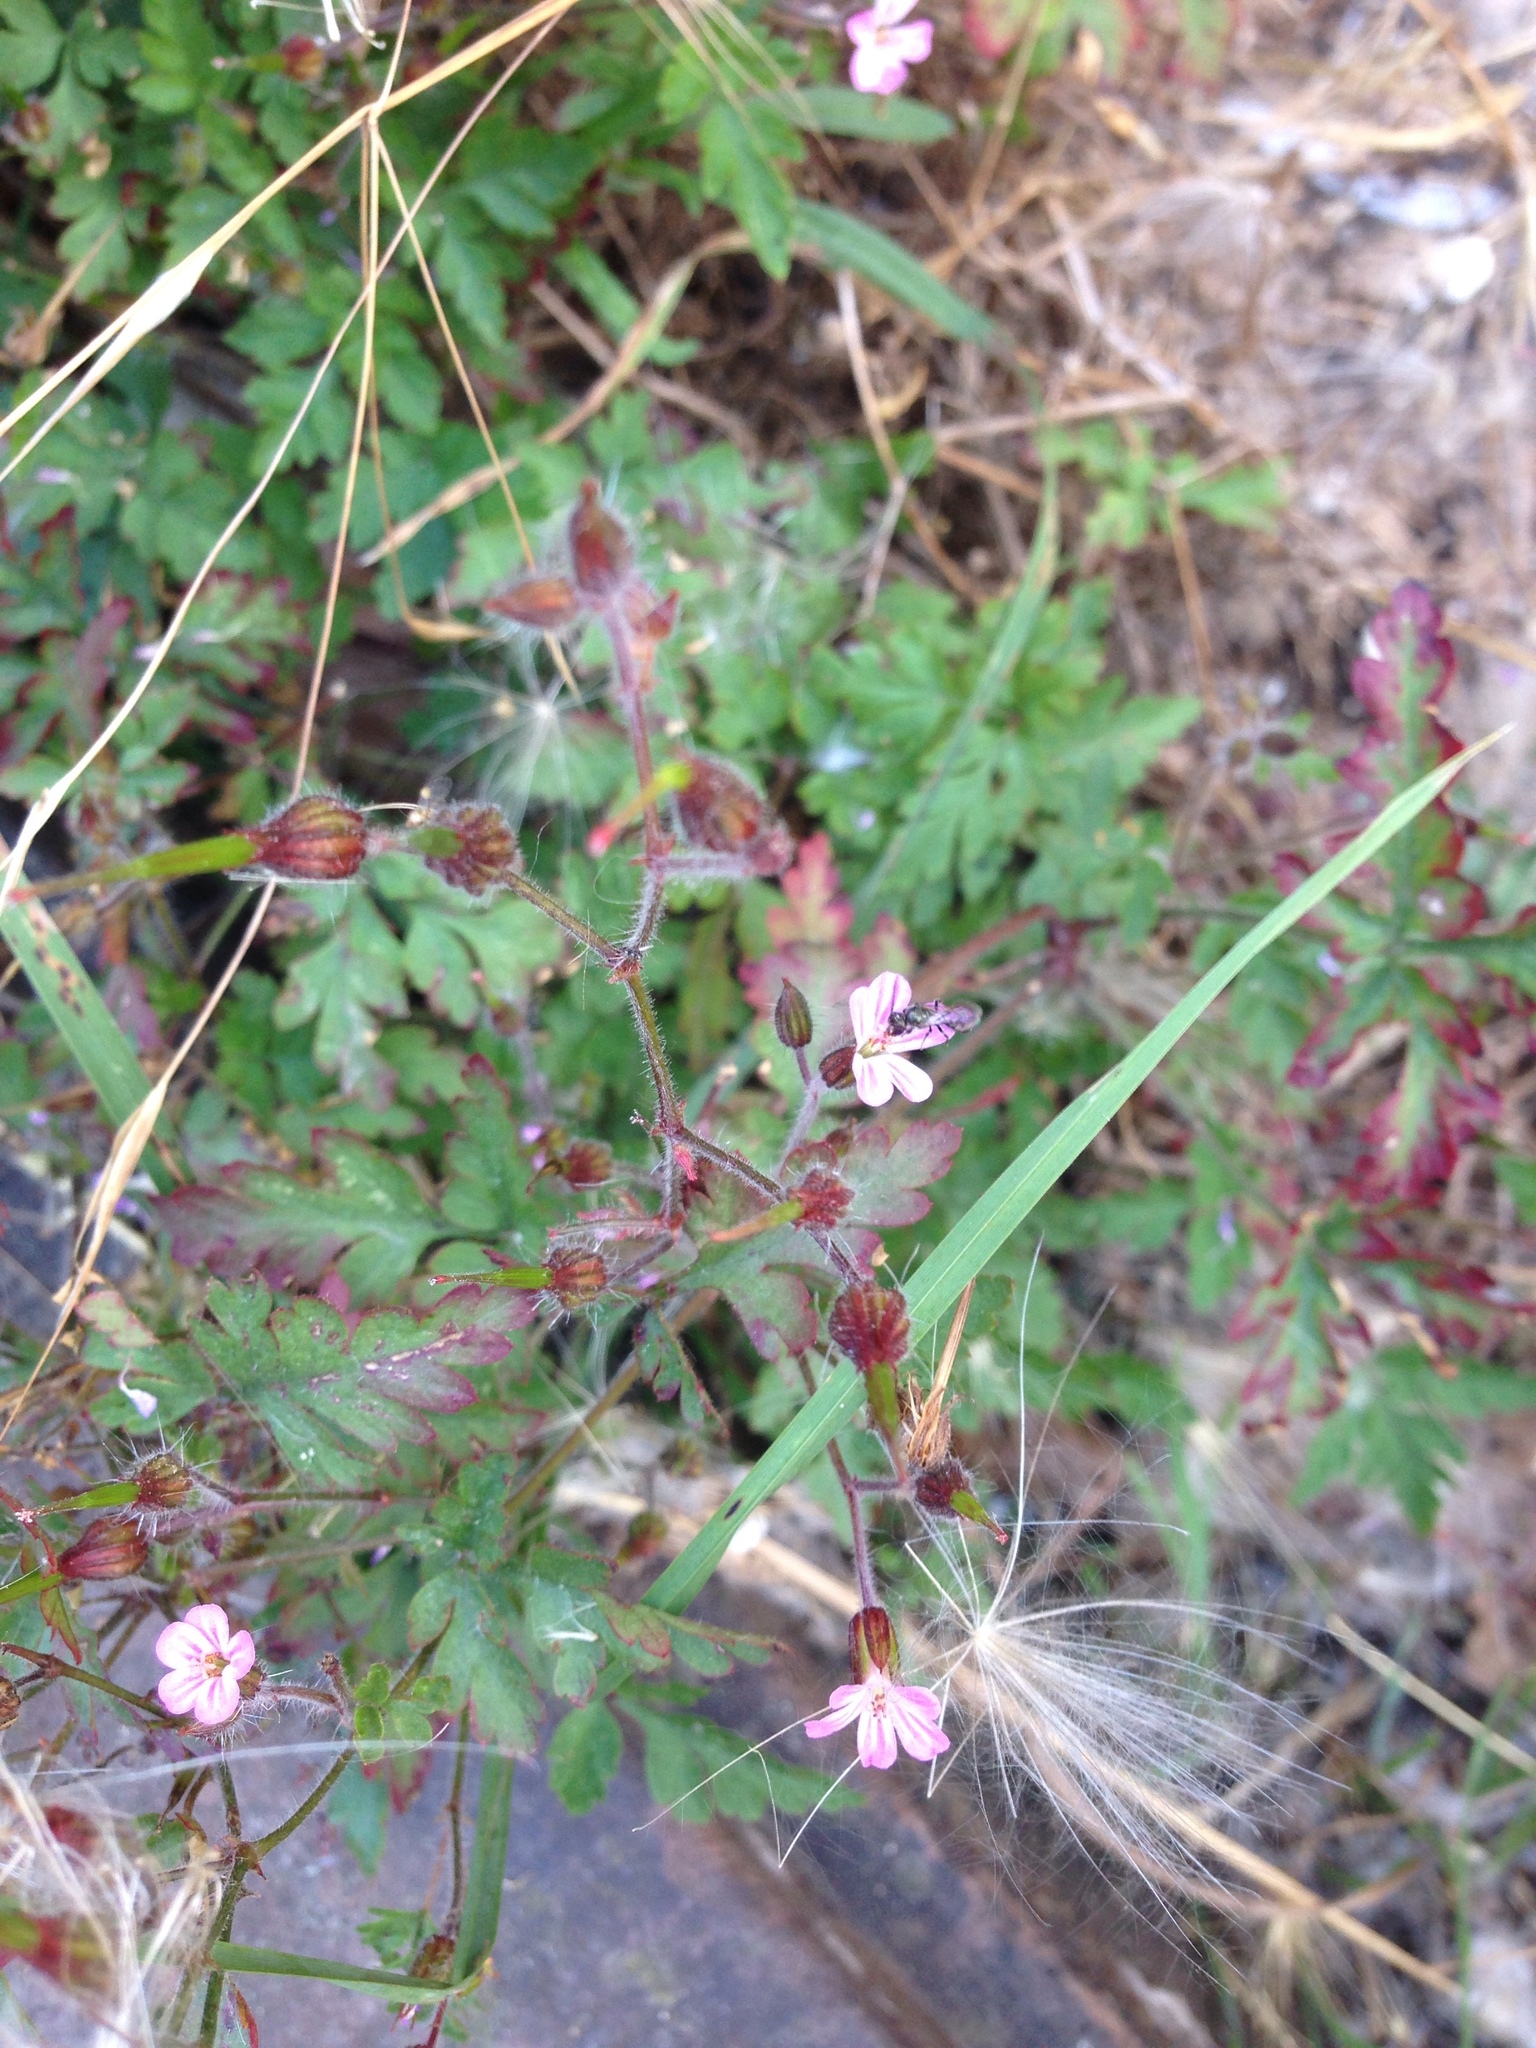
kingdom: Plantae
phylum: Tracheophyta
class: Magnoliopsida
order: Geraniales
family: Geraniaceae
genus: Geranium
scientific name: Geranium robertianum
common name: Herb-robert
